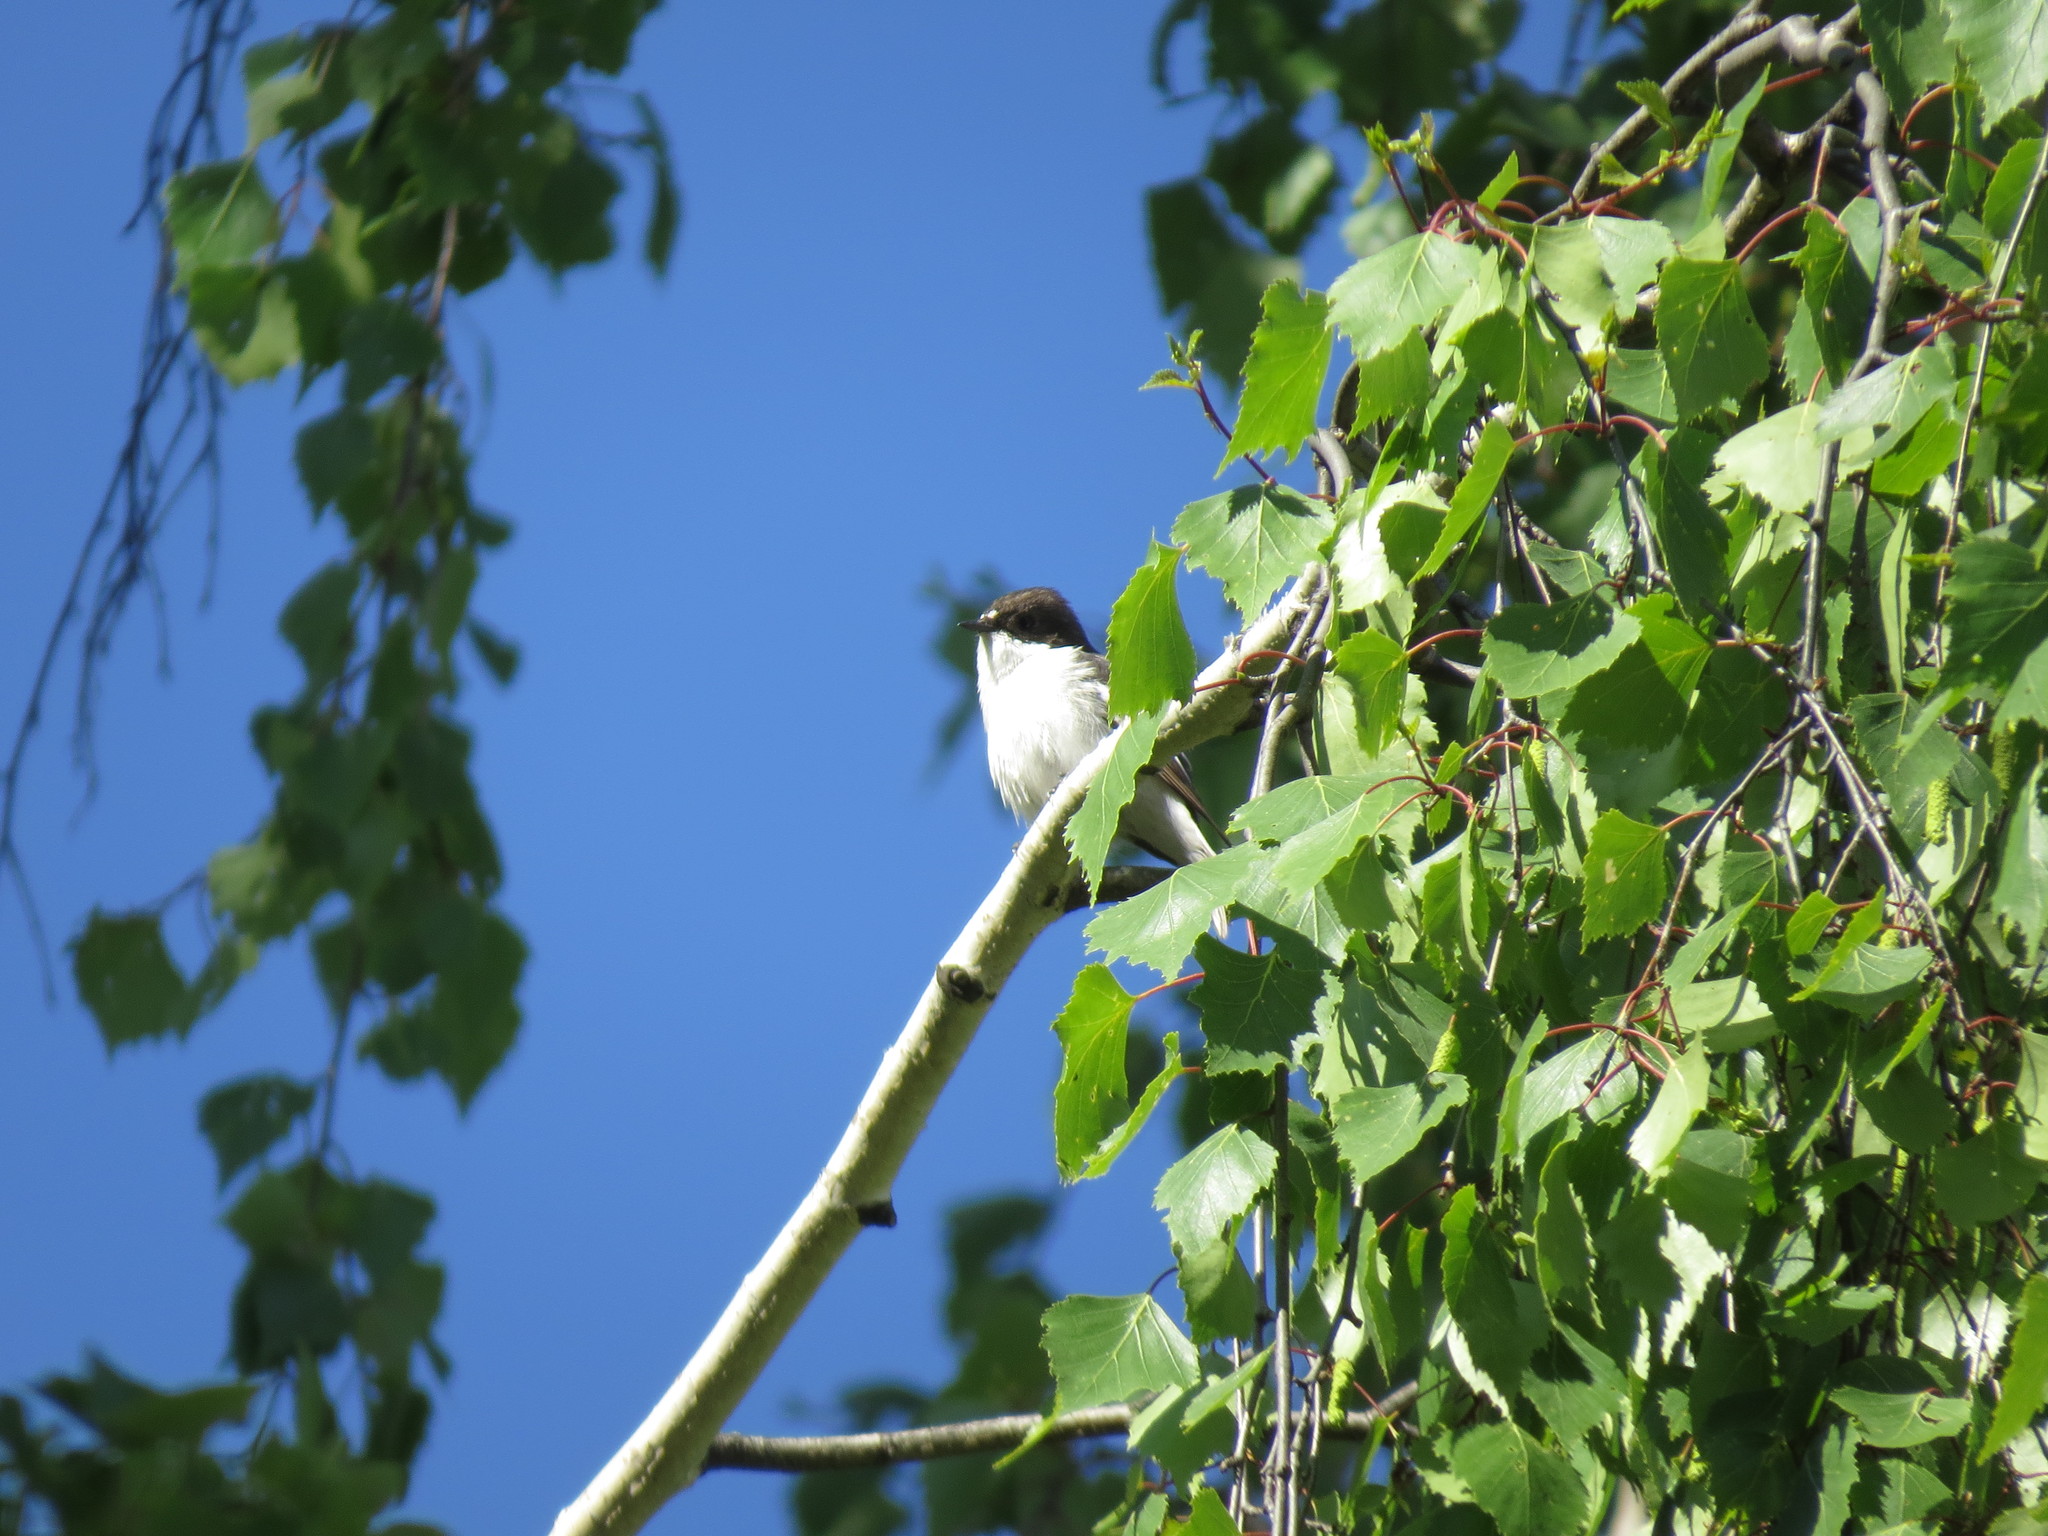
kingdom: Animalia
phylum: Chordata
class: Aves
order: Passeriformes
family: Muscicapidae
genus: Ficedula
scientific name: Ficedula hypoleuca
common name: European pied flycatcher
